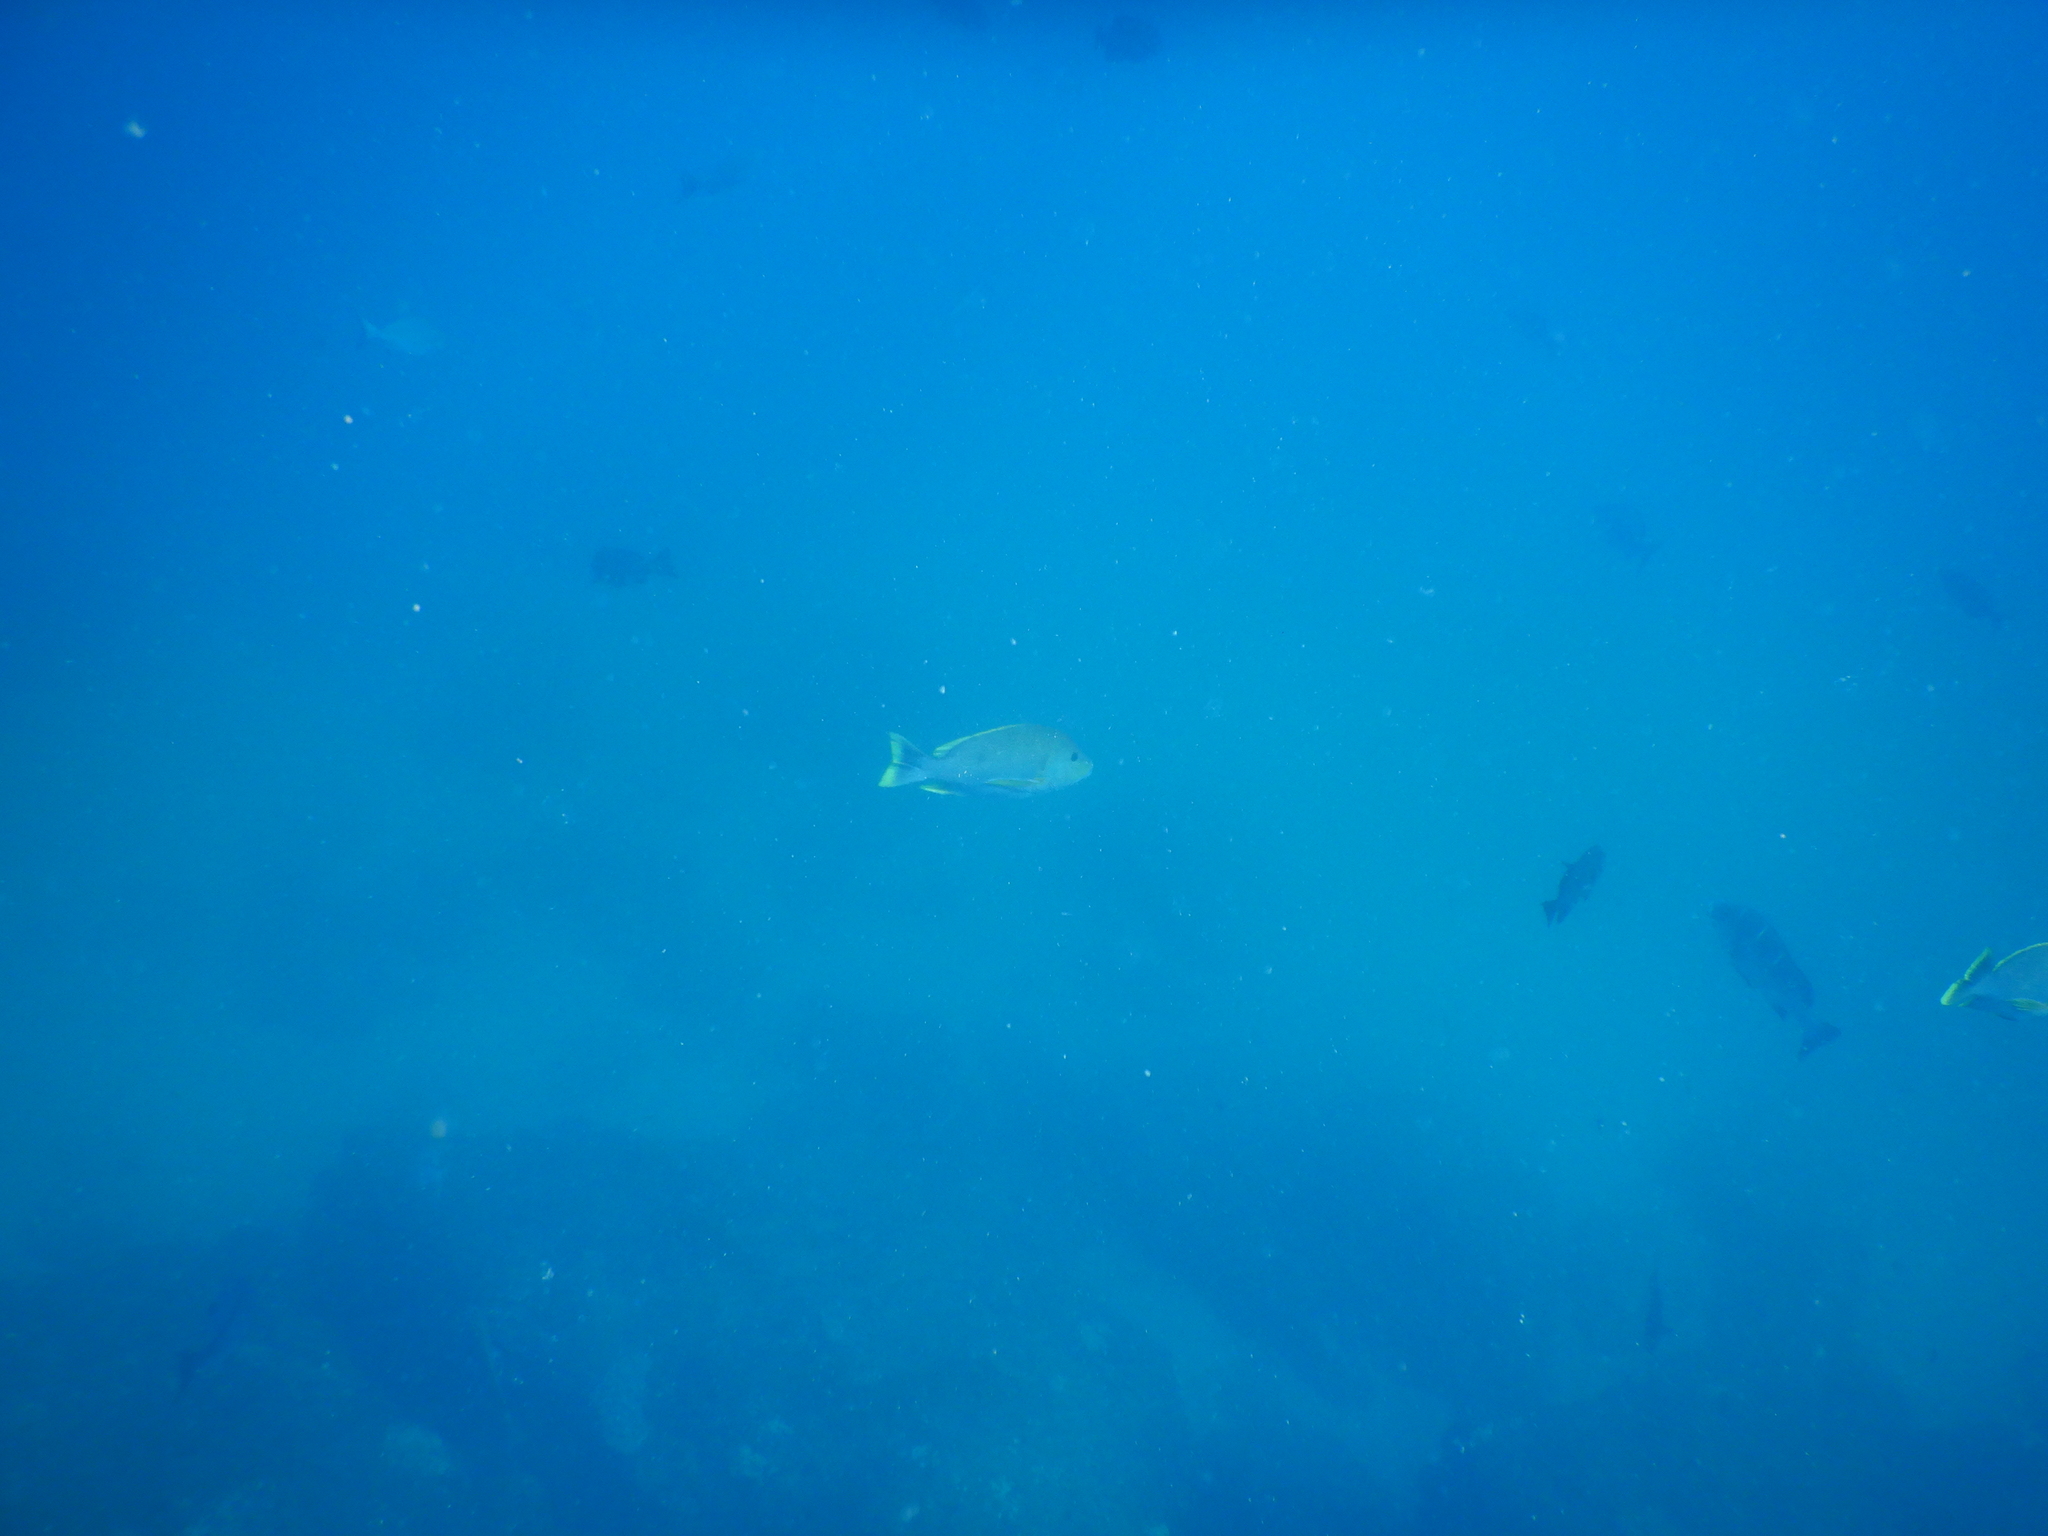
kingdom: Animalia
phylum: Chordata
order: Perciformes
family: Lutjanidae
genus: Lutjanus
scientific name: Lutjanus rivulatus
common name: Blubberlip snapper
